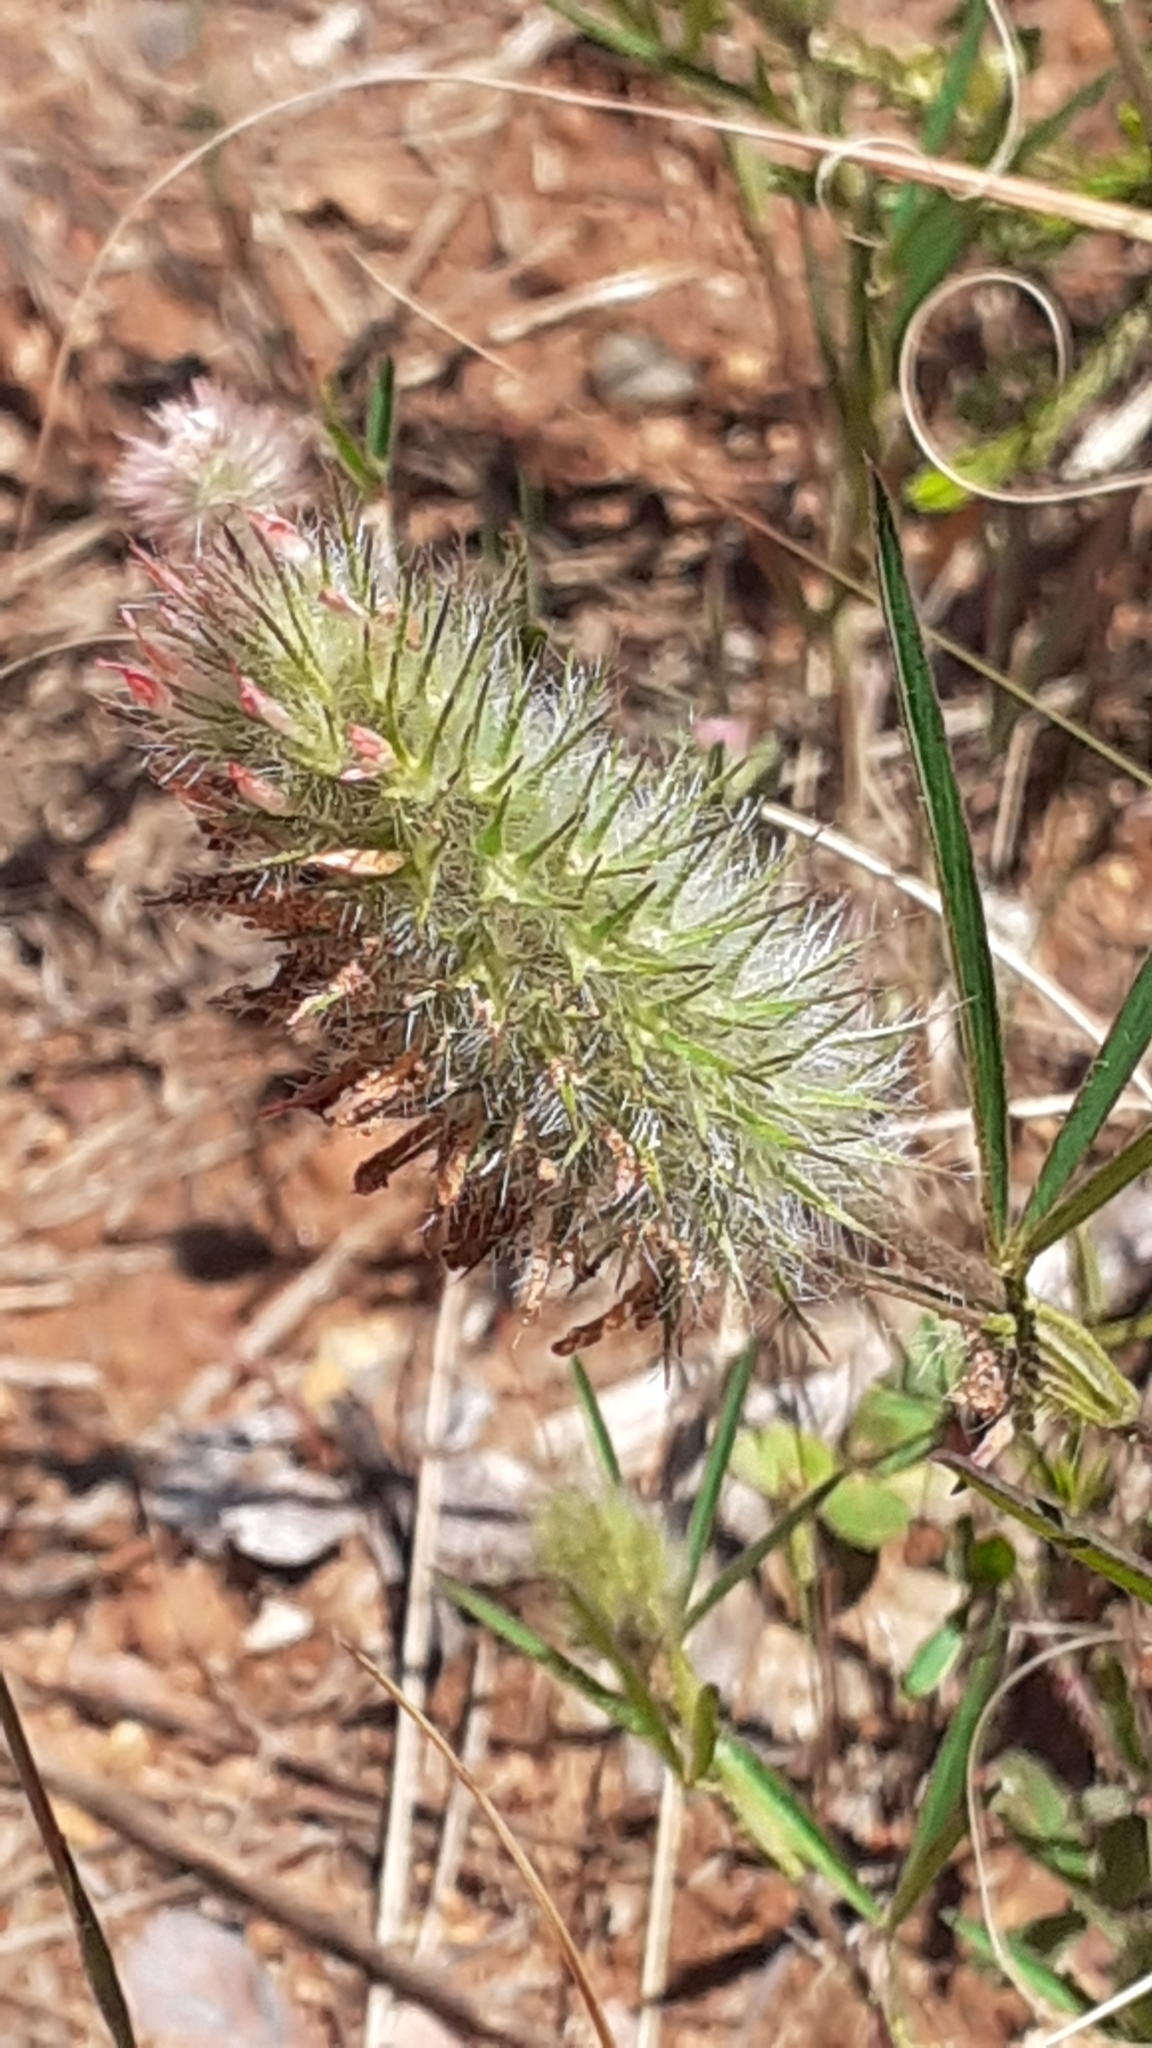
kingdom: Plantae
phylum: Tracheophyta
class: Magnoliopsida
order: Fabales
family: Fabaceae
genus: Trifolium
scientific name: Trifolium angustifolium
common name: Narrow clover
